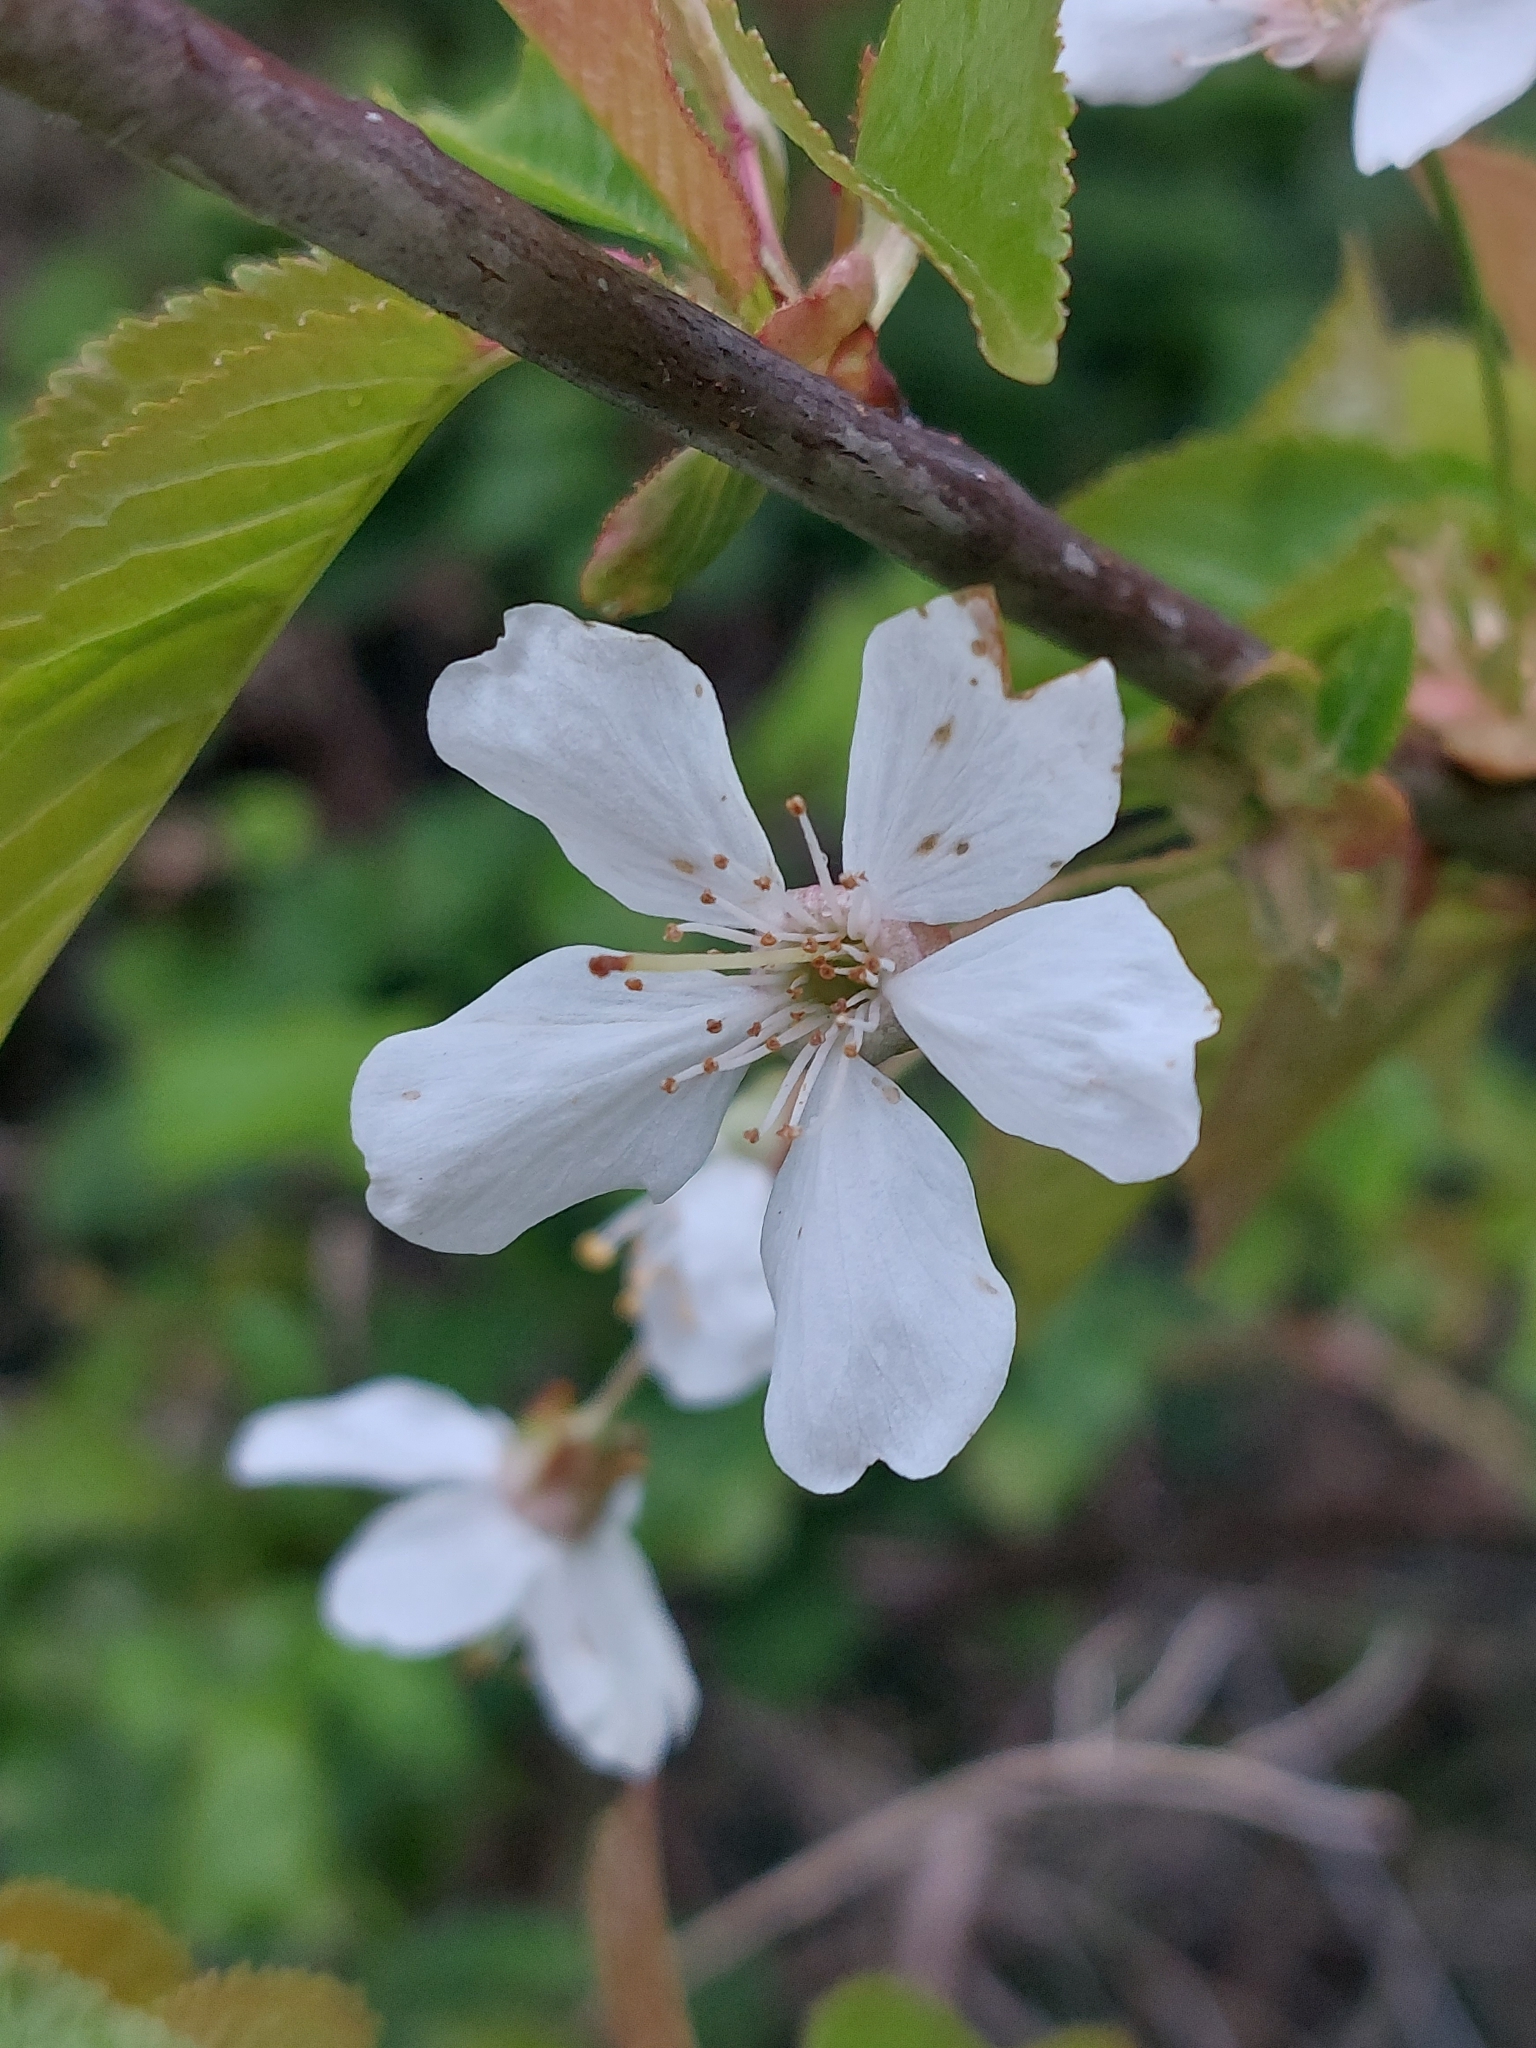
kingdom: Plantae
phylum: Tracheophyta
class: Magnoliopsida
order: Rosales
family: Rosaceae
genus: Prunus
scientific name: Prunus avium
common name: Sweet cherry
